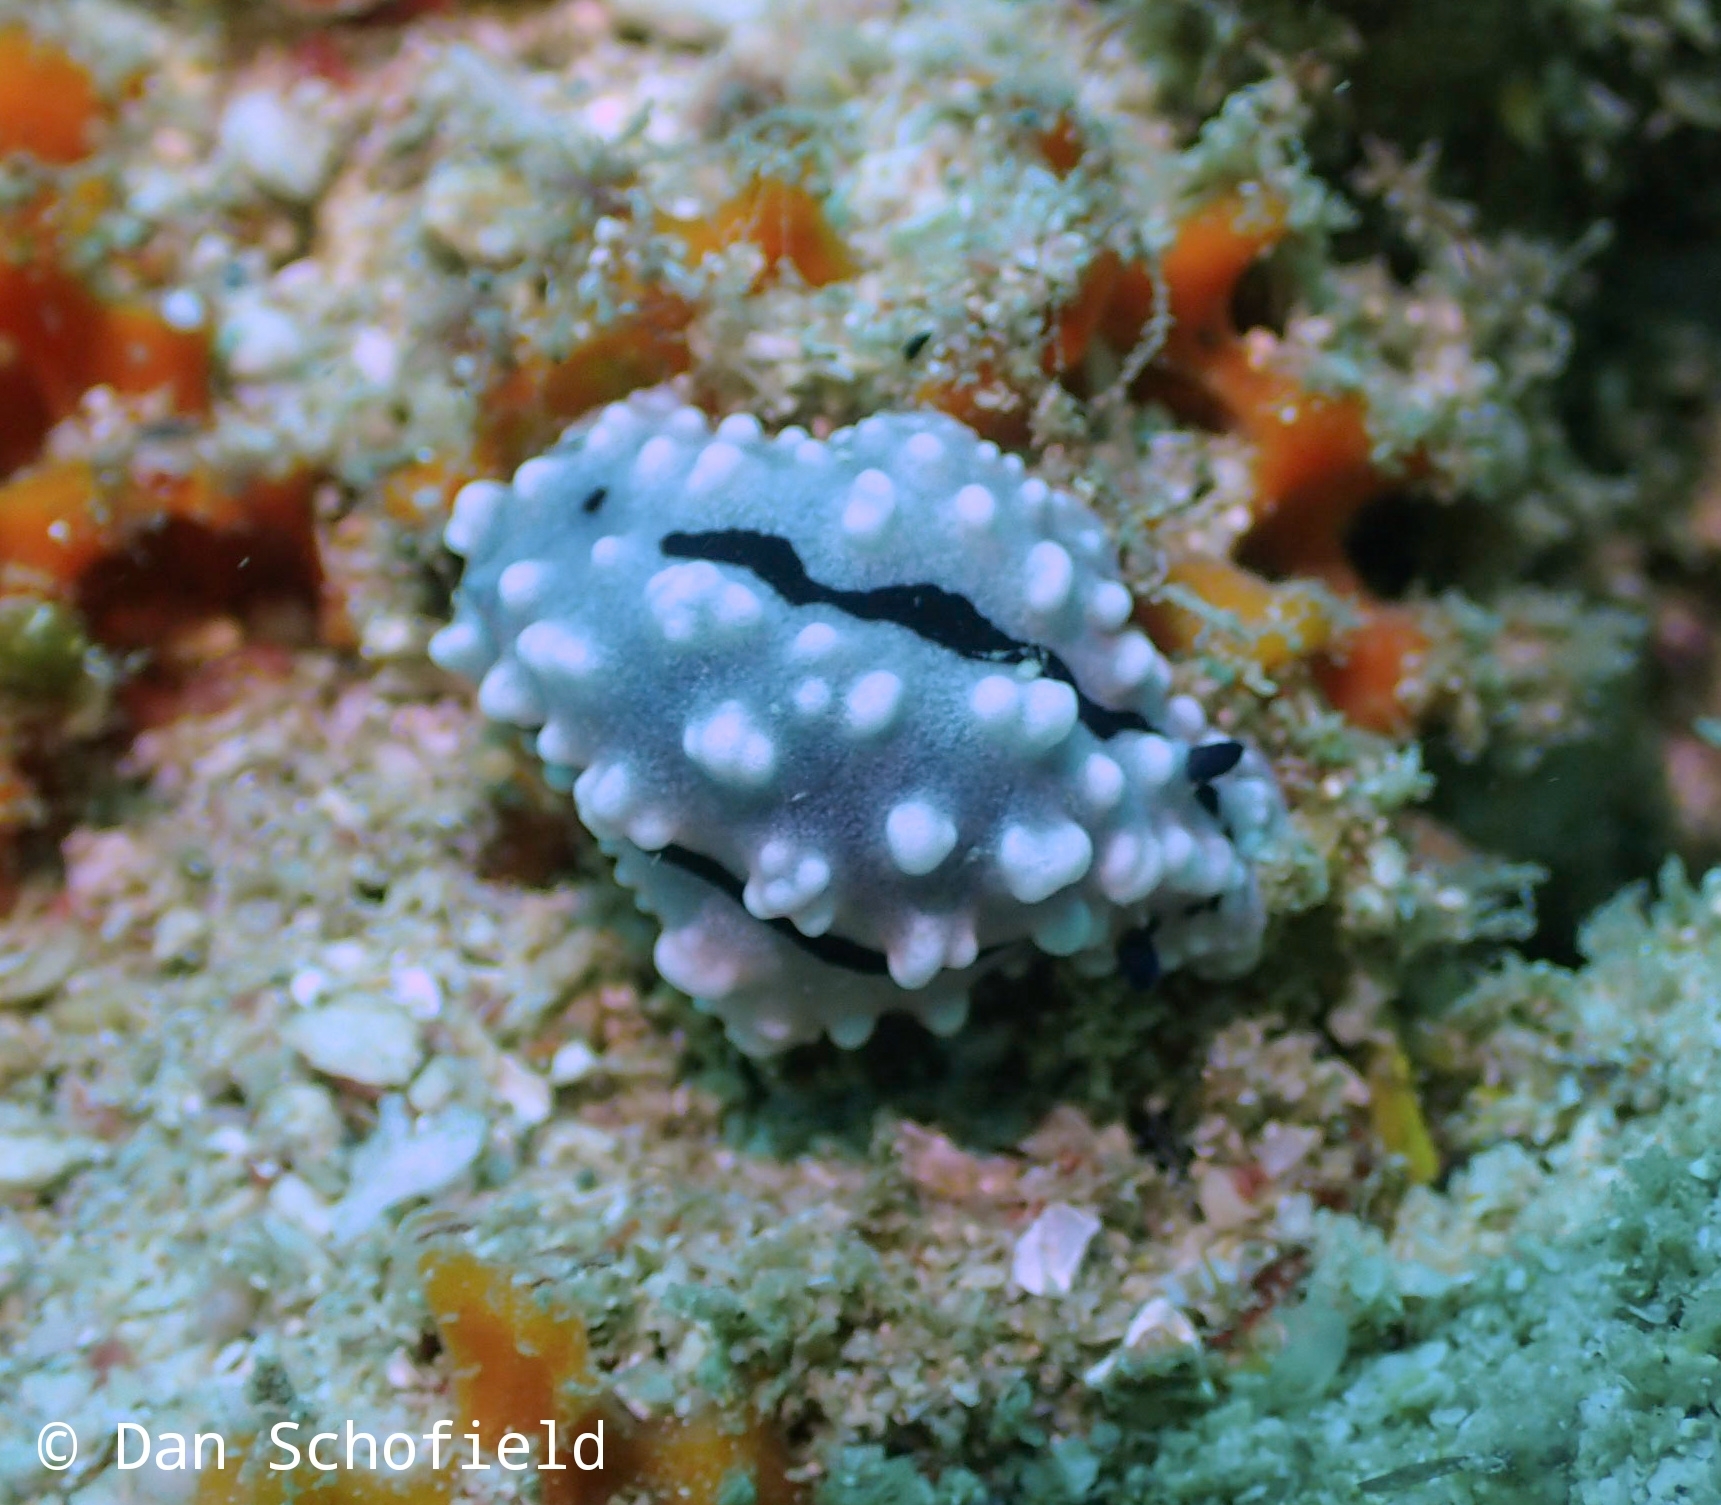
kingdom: Animalia
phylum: Mollusca
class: Gastropoda
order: Nudibranchia
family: Phyllidiidae
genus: Phyllidiella
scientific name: Phyllidiella rudmani
